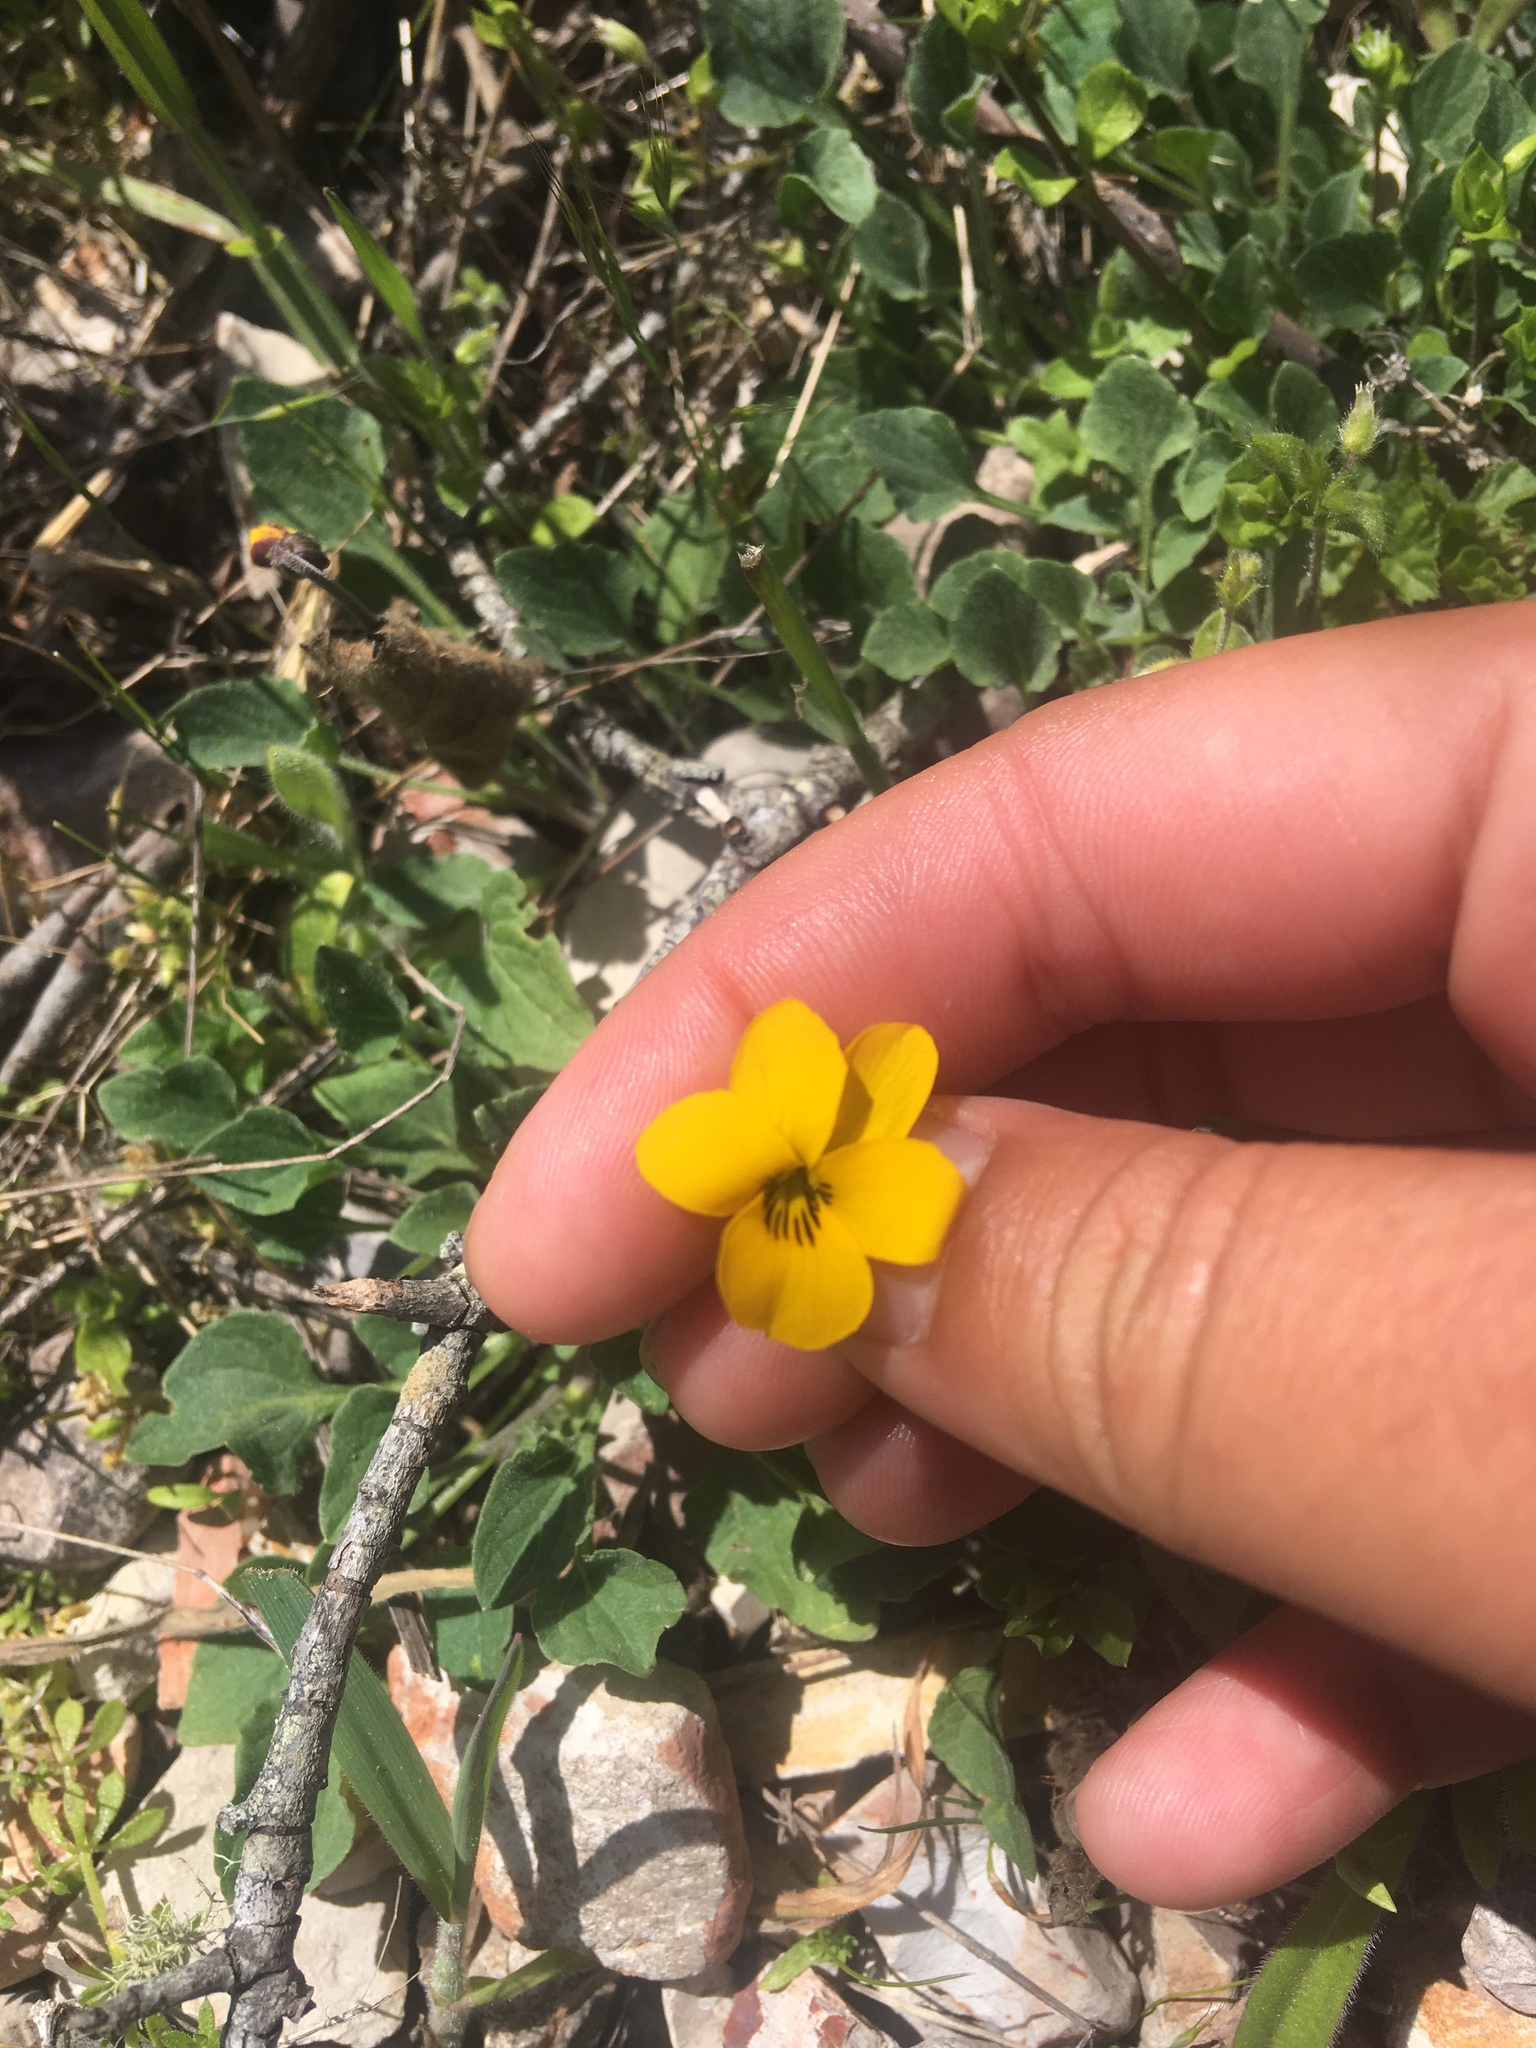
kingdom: Plantae
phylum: Tracheophyta
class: Magnoliopsida
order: Malpighiales
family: Violaceae
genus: Viola
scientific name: Viola pedunculata
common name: California golden violet
